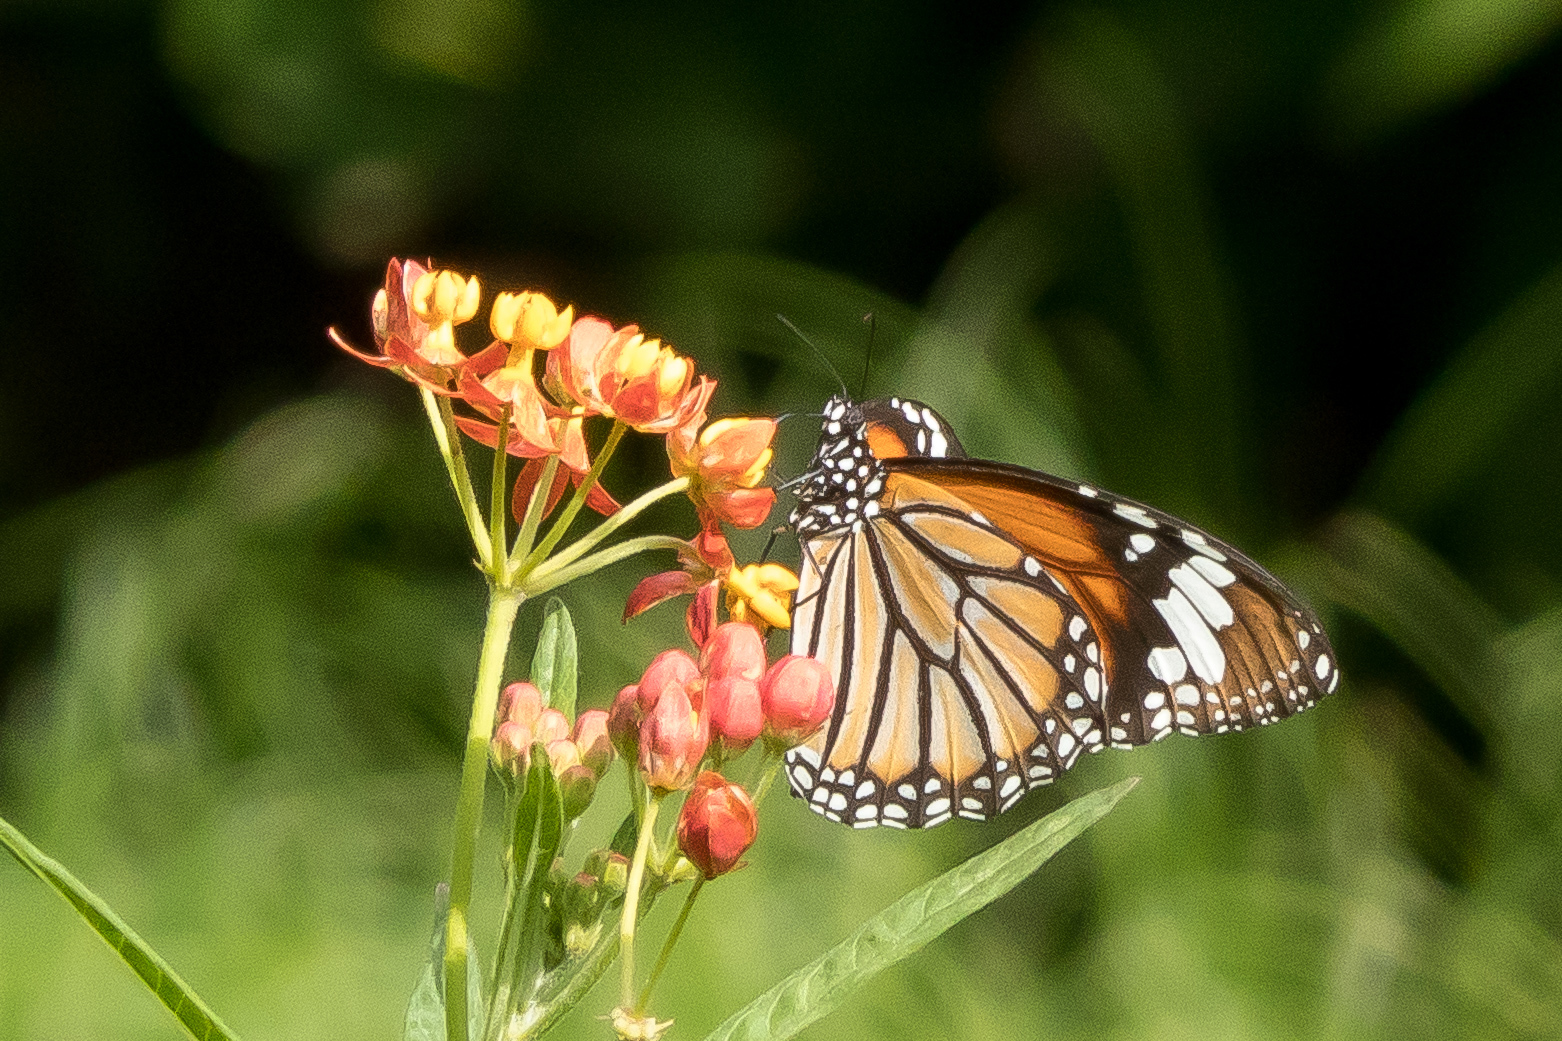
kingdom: Animalia
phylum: Arthropoda
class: Insecta
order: Lepidoptera
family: Nymphalidae
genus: Danaus
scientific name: Danaus genutia
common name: Common tiger butterfly
